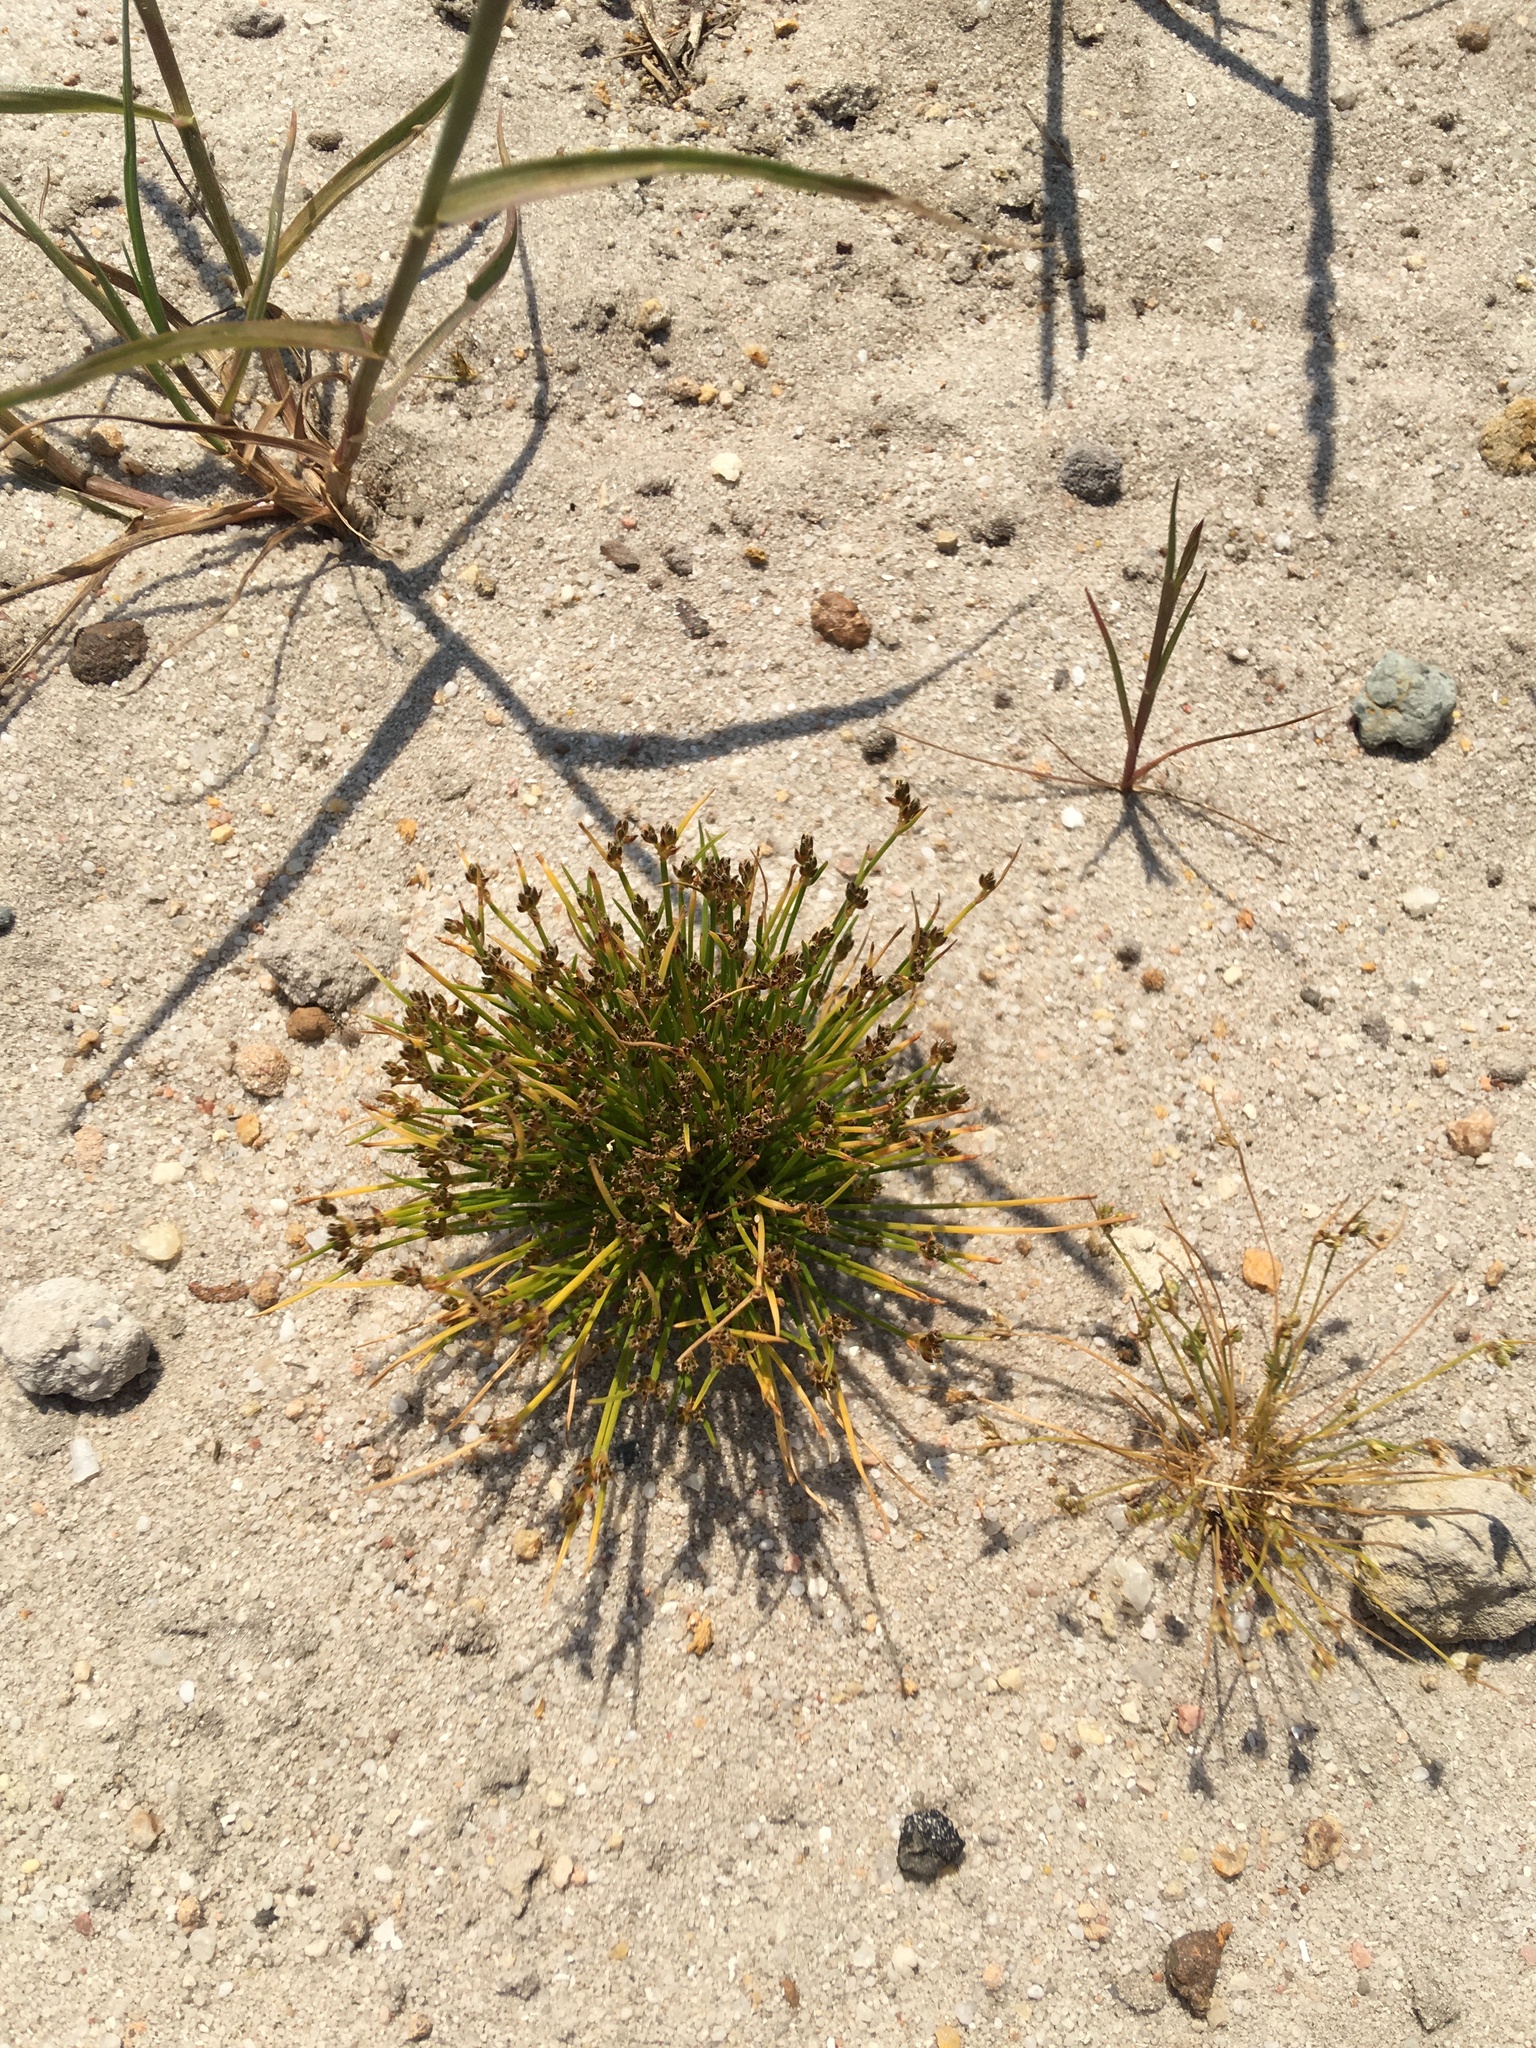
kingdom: Plantae
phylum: Tracheophyta
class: Liliopsida
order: Poales
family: Cyperaceae
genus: Isolepis
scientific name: Isolepis marginata
